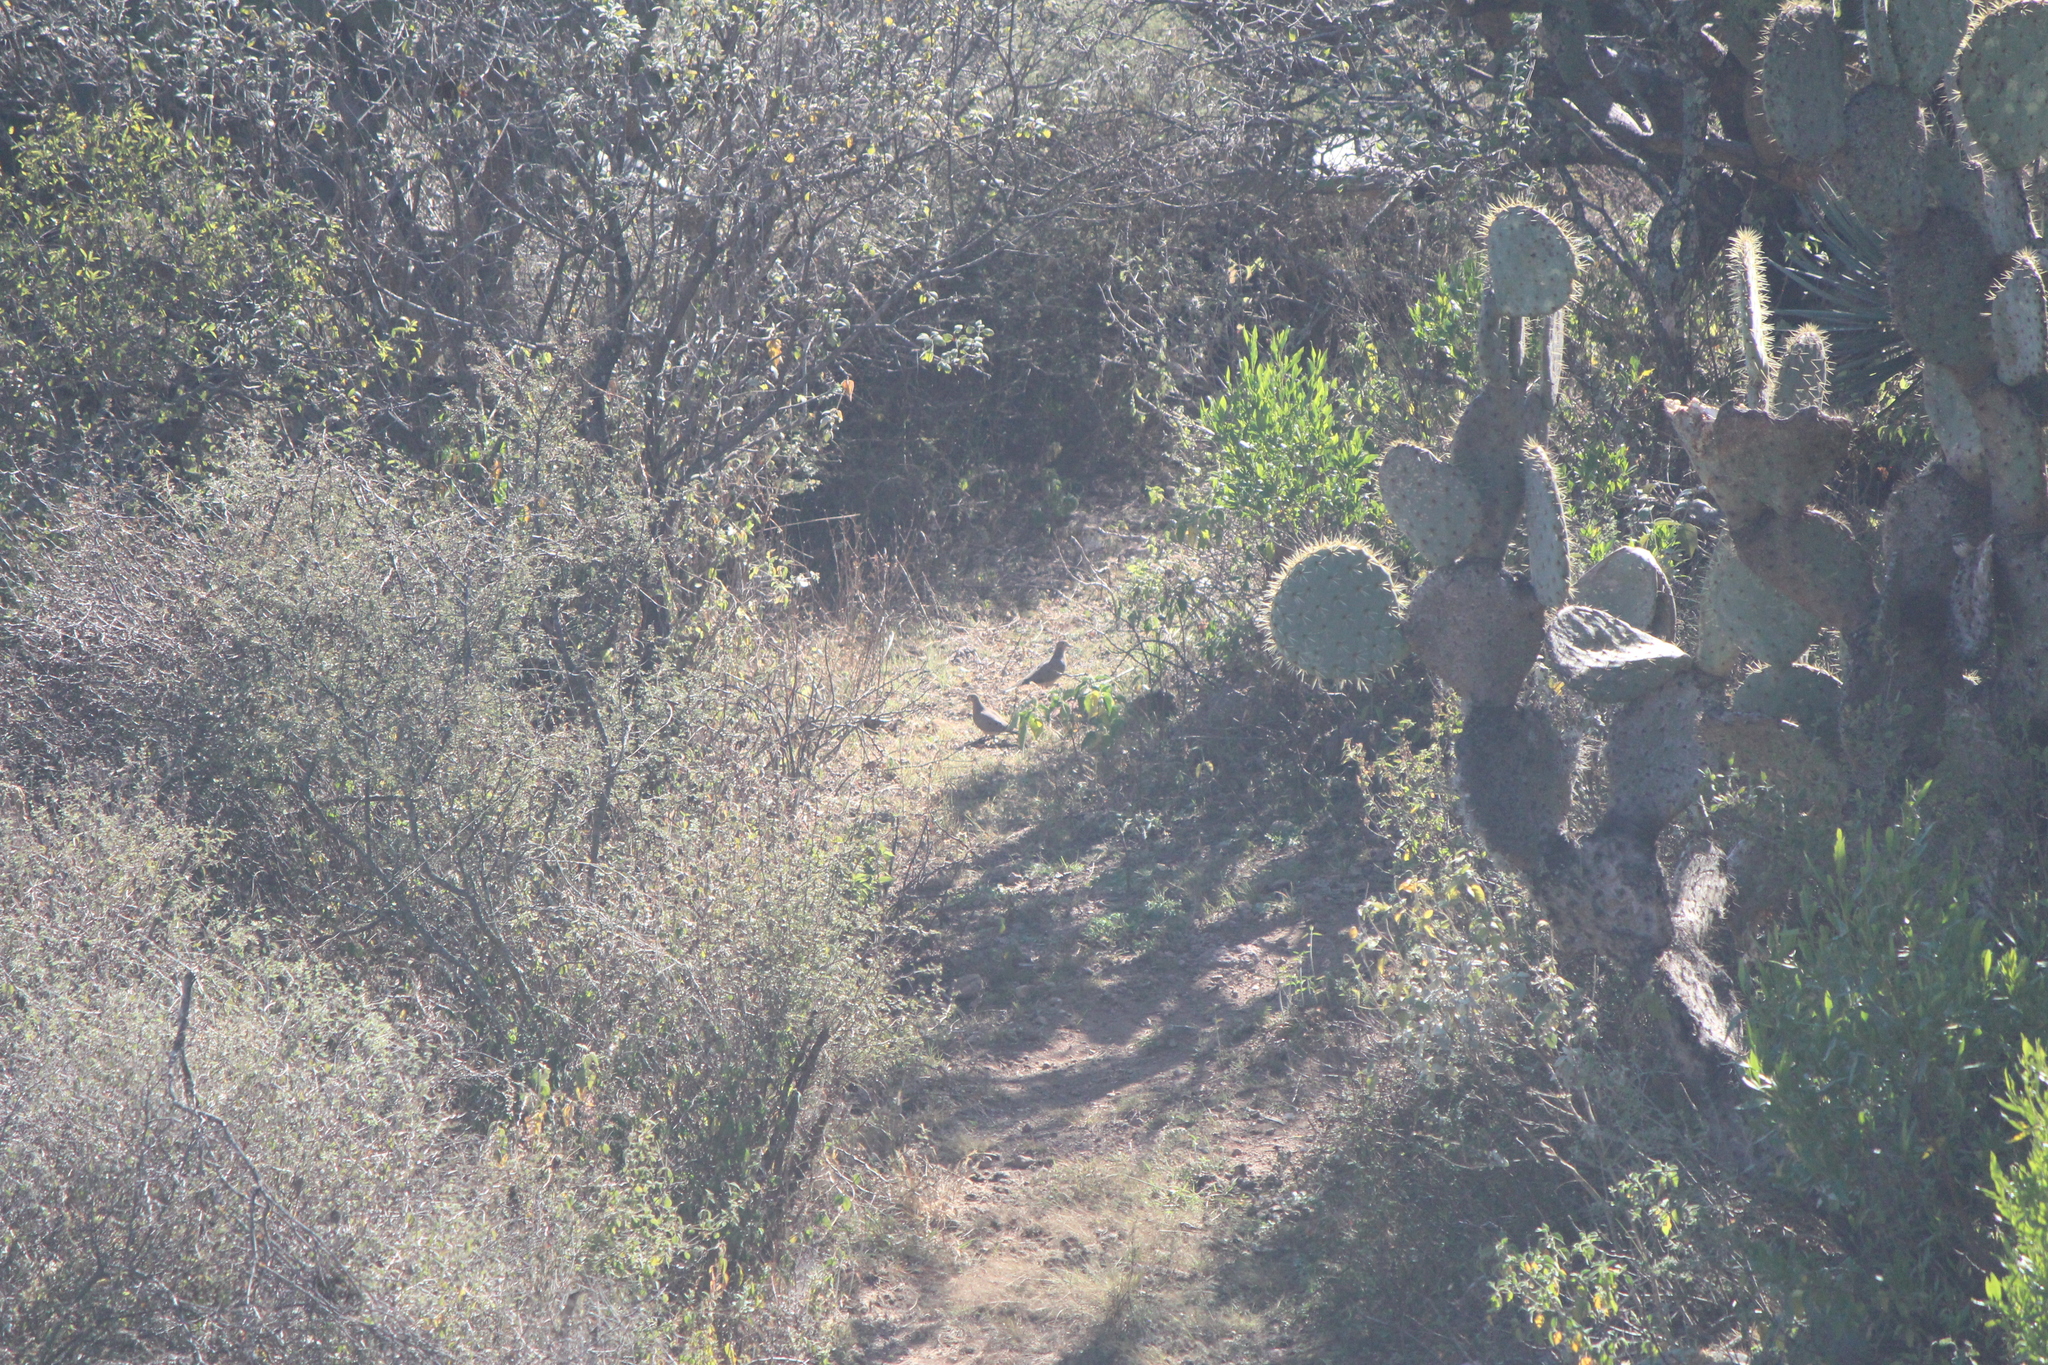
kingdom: Animalia
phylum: Chordata
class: Aves
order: Columbiformes
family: Columbidae
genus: Zenaida
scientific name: Zenaida macroura
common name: Mourning dove
